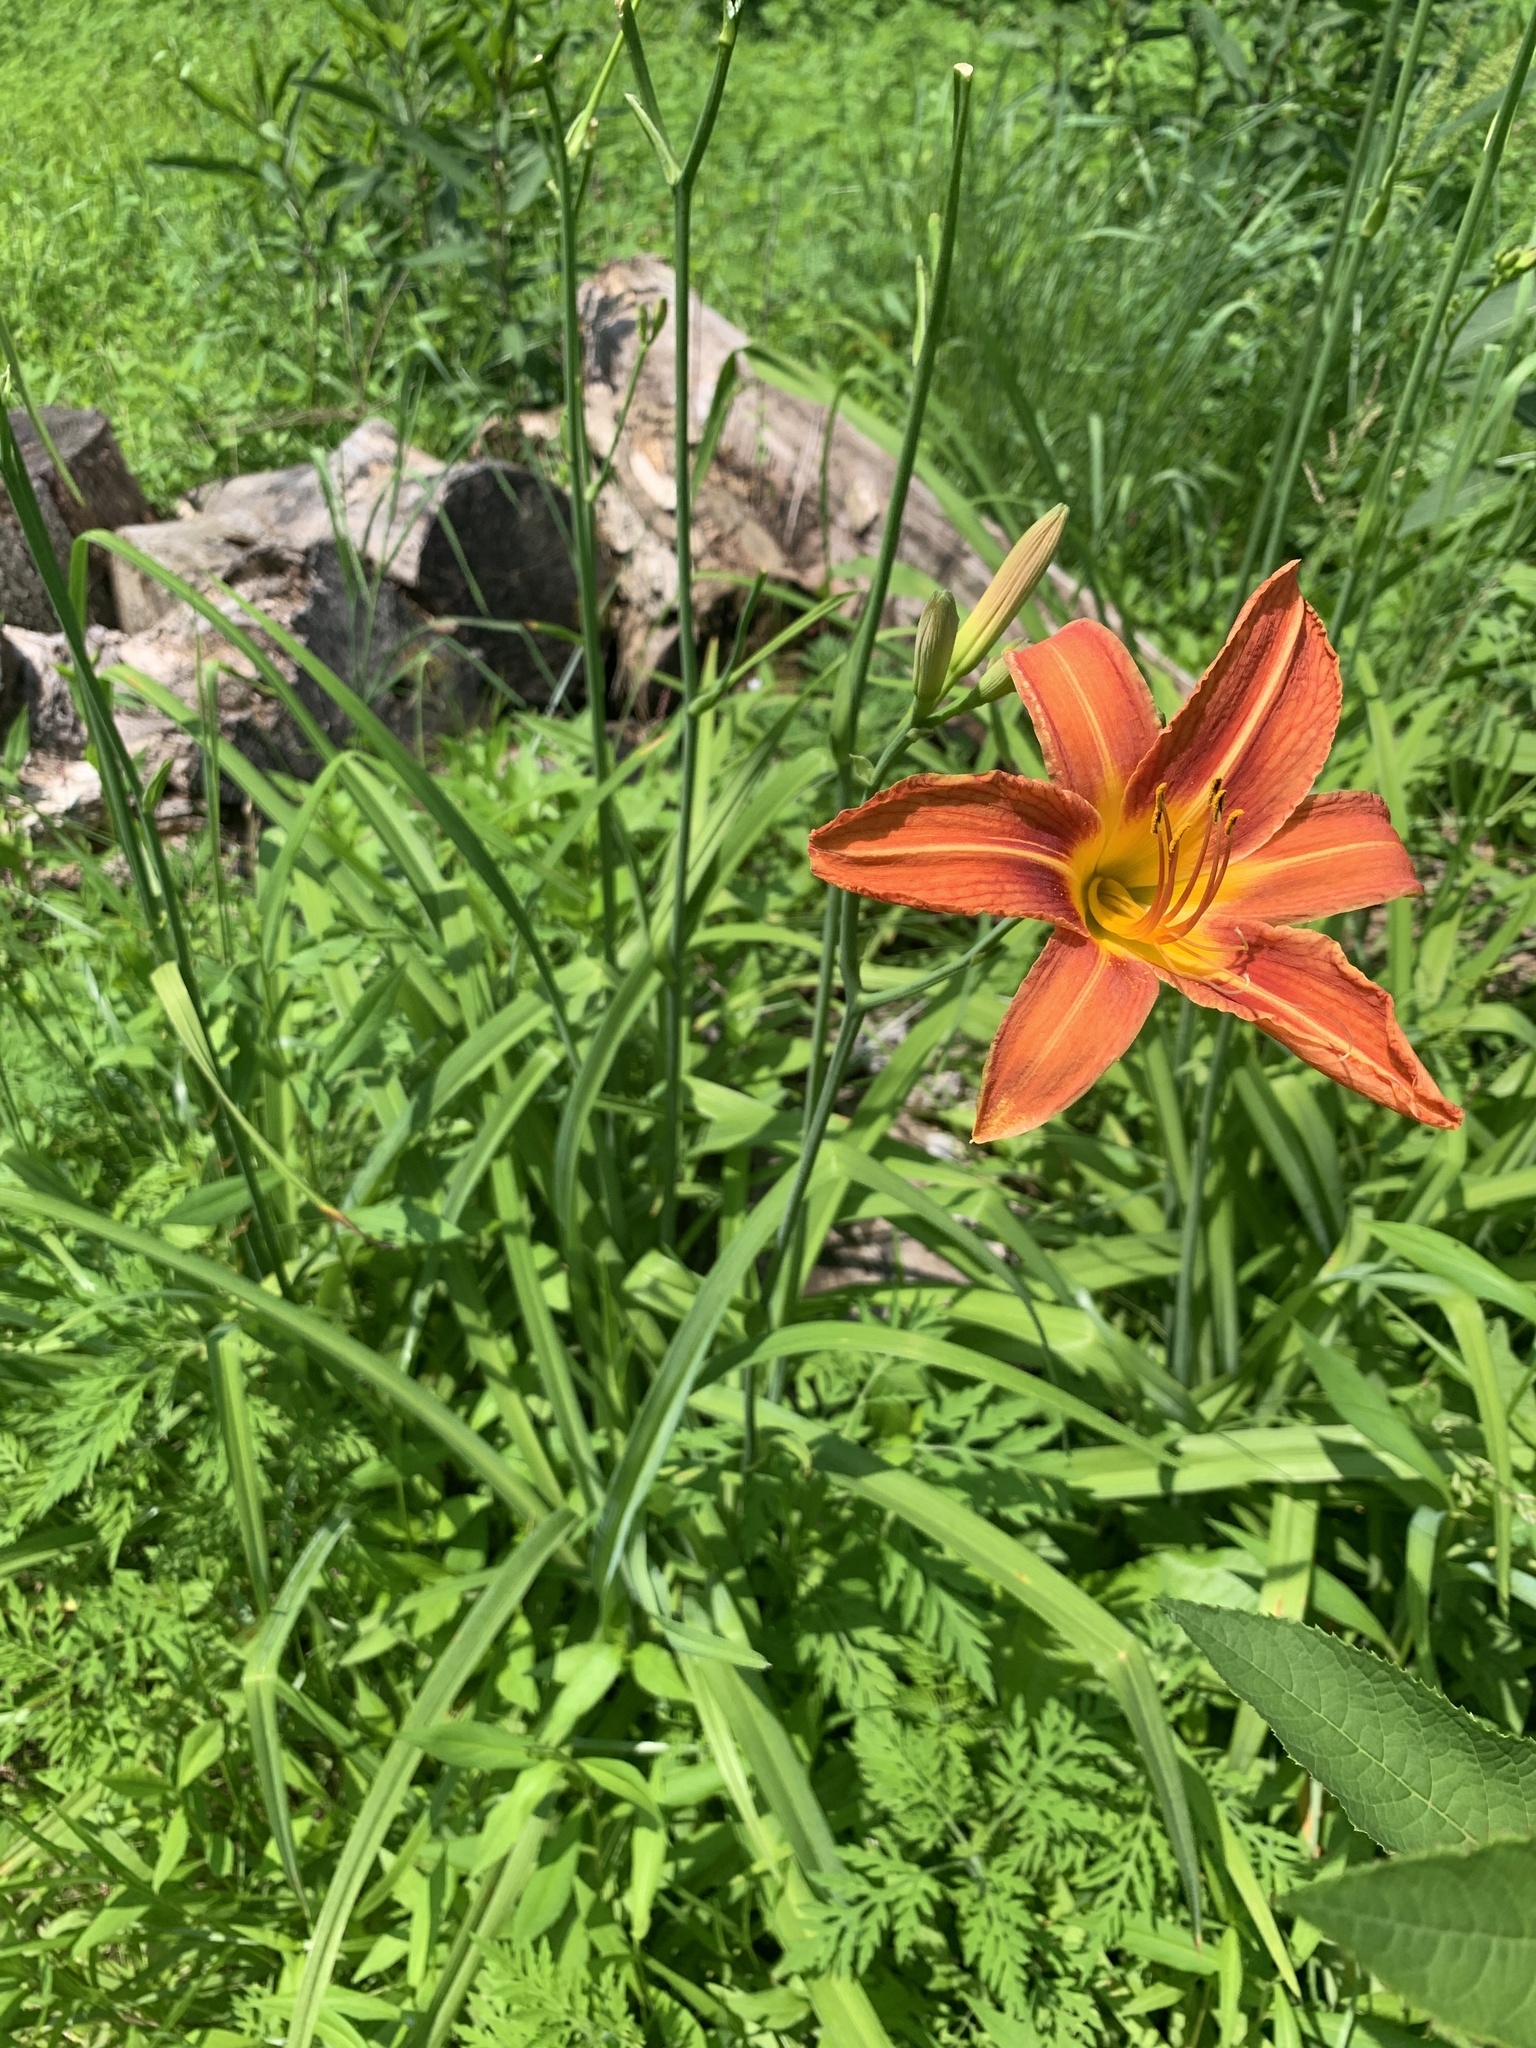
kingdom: Plantae
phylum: Tracheophyta
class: Liliopsida
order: Asparagales
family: Asphodelaceae
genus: Hemerocallis
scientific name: Hemerocallis fulva
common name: Orange day-lily
